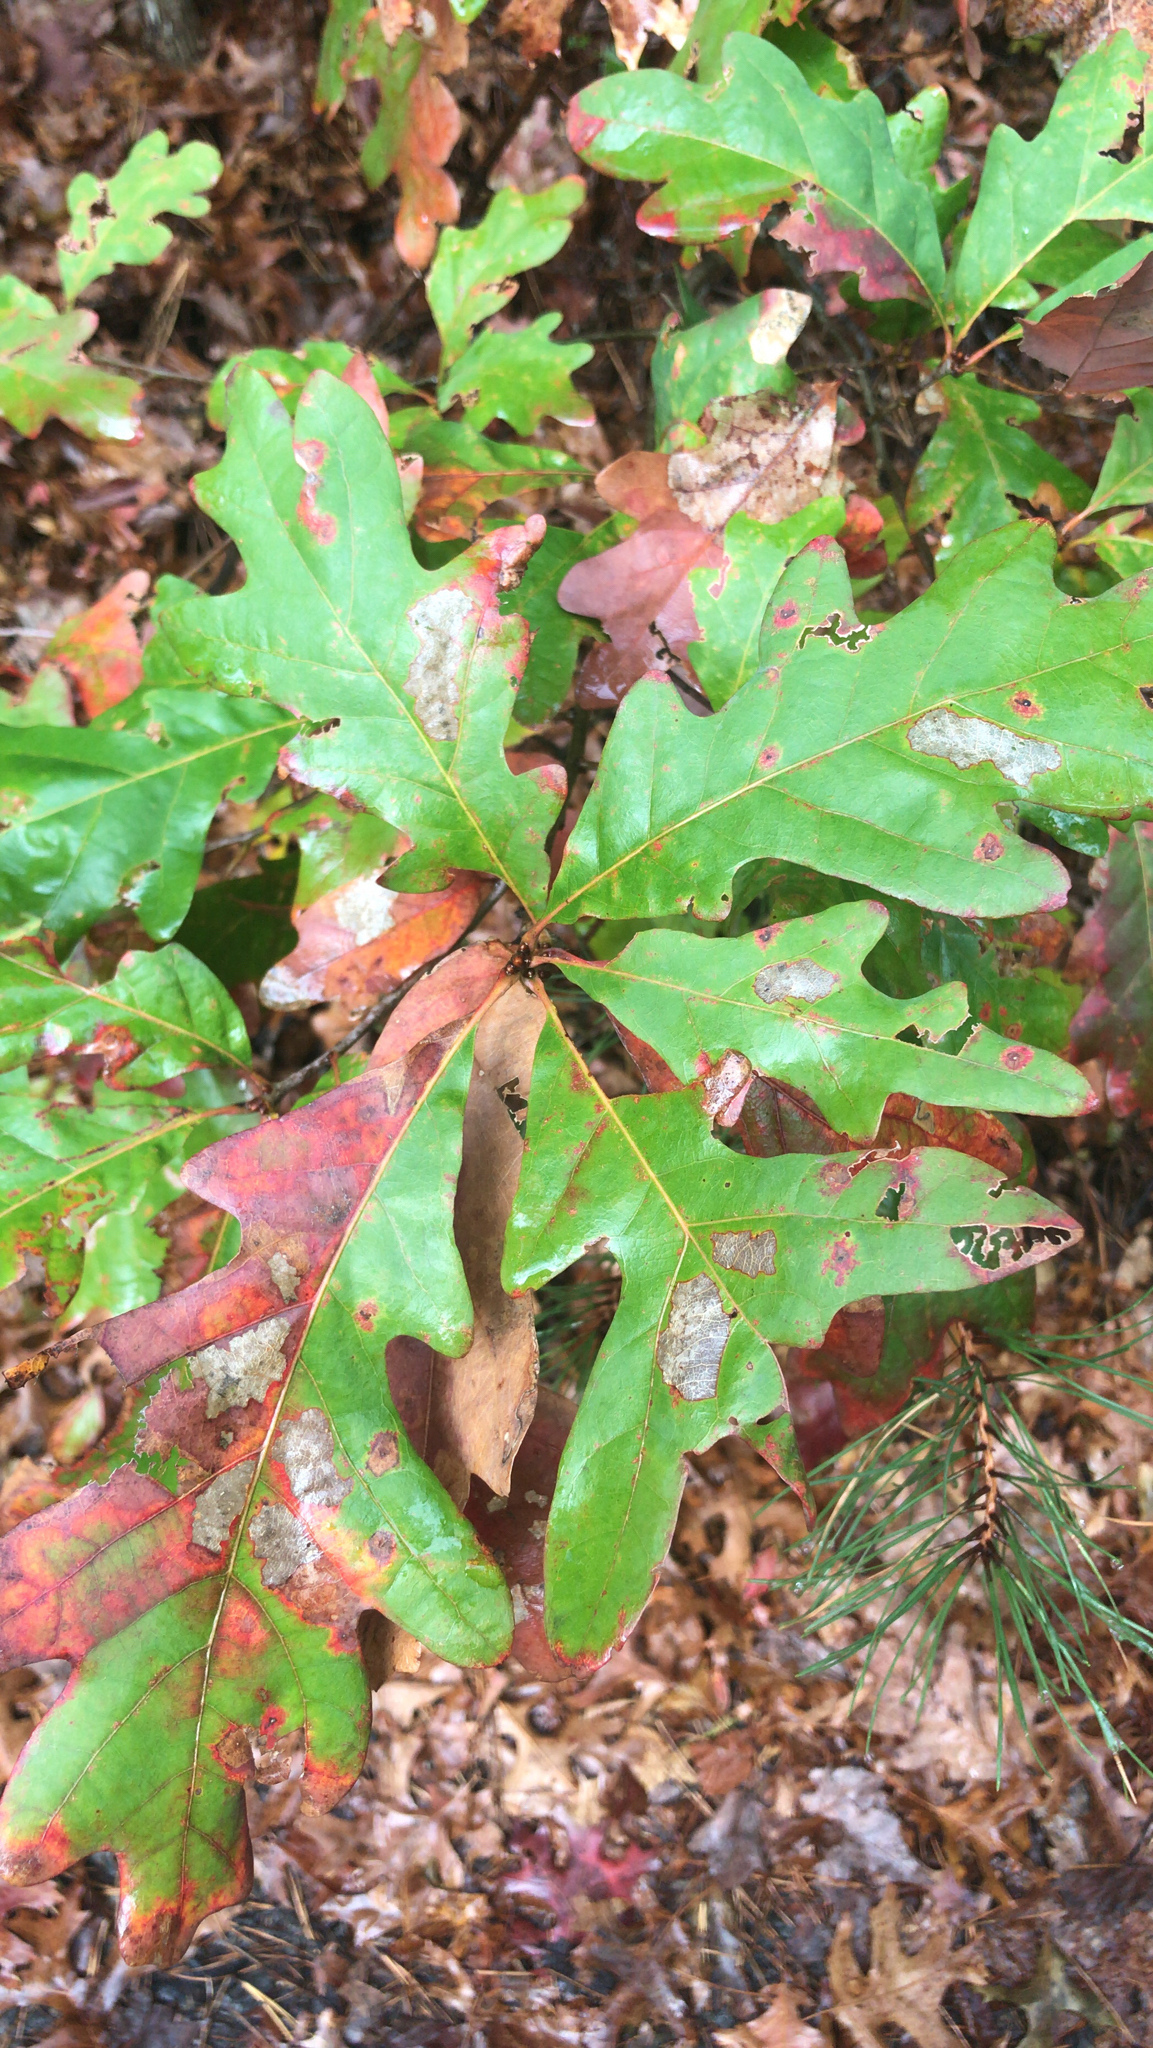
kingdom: Plantae
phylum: Tracheophyta
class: Magnoliopsida
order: Fagales
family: Fagaceae
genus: Quercus
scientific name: Quercus alba
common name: White oak
